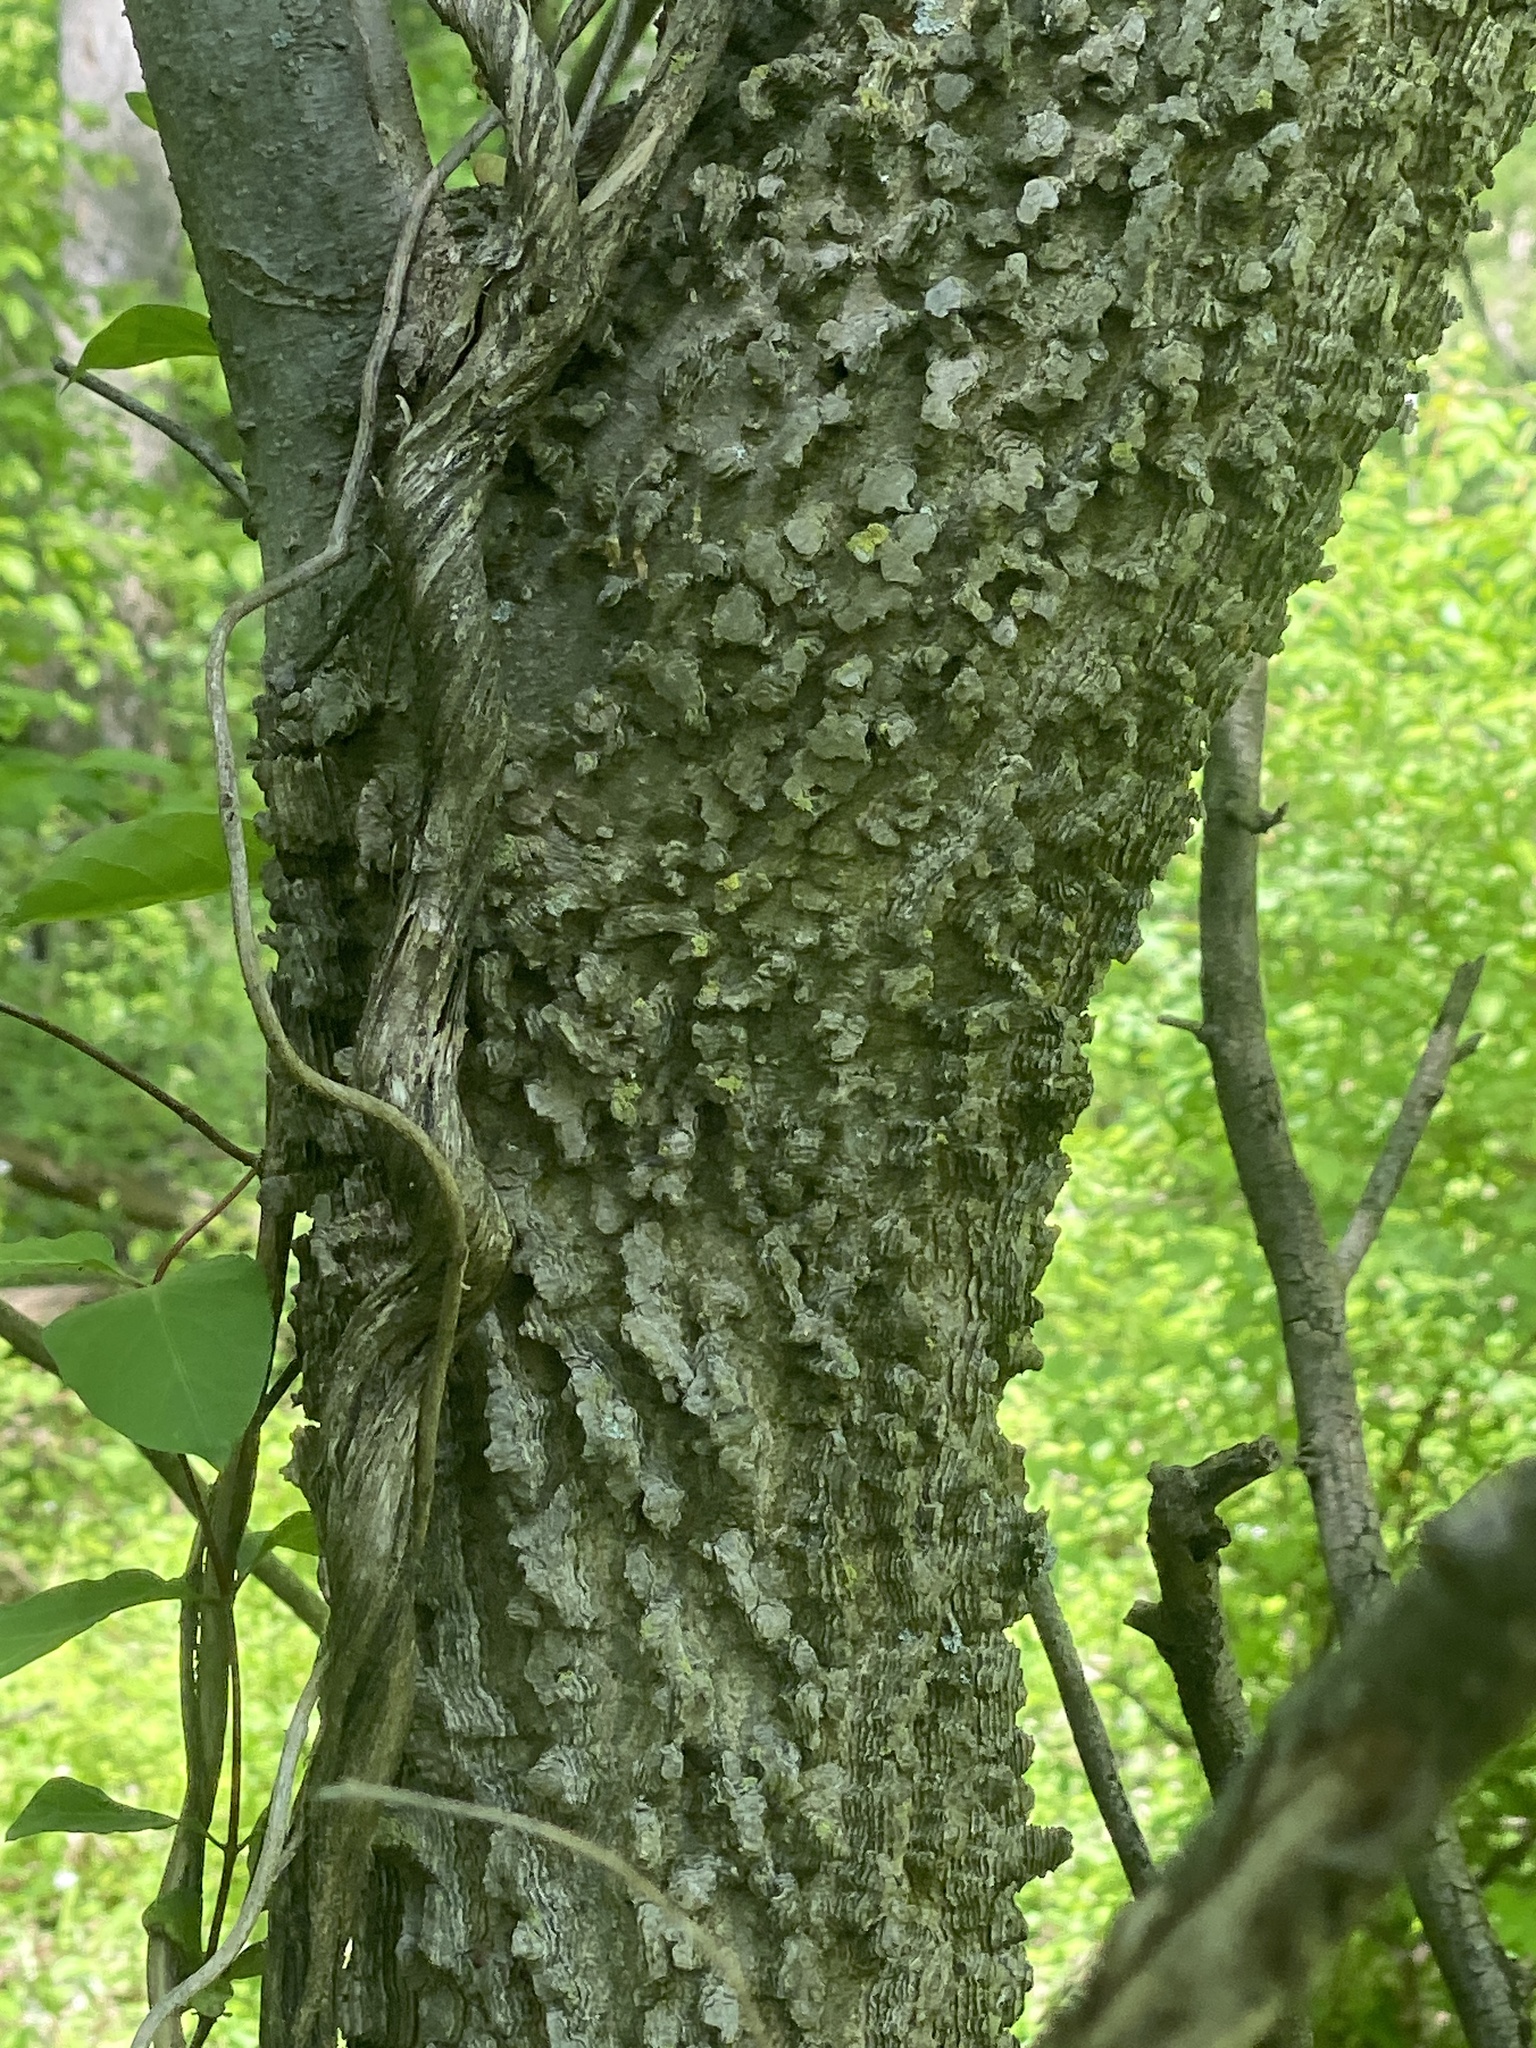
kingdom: Plantae
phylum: Tracheophyta
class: Magnoliopsida
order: Rosales
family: Cannabaceae
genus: Celtis
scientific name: Celtis occidentalis
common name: Common hackberry
